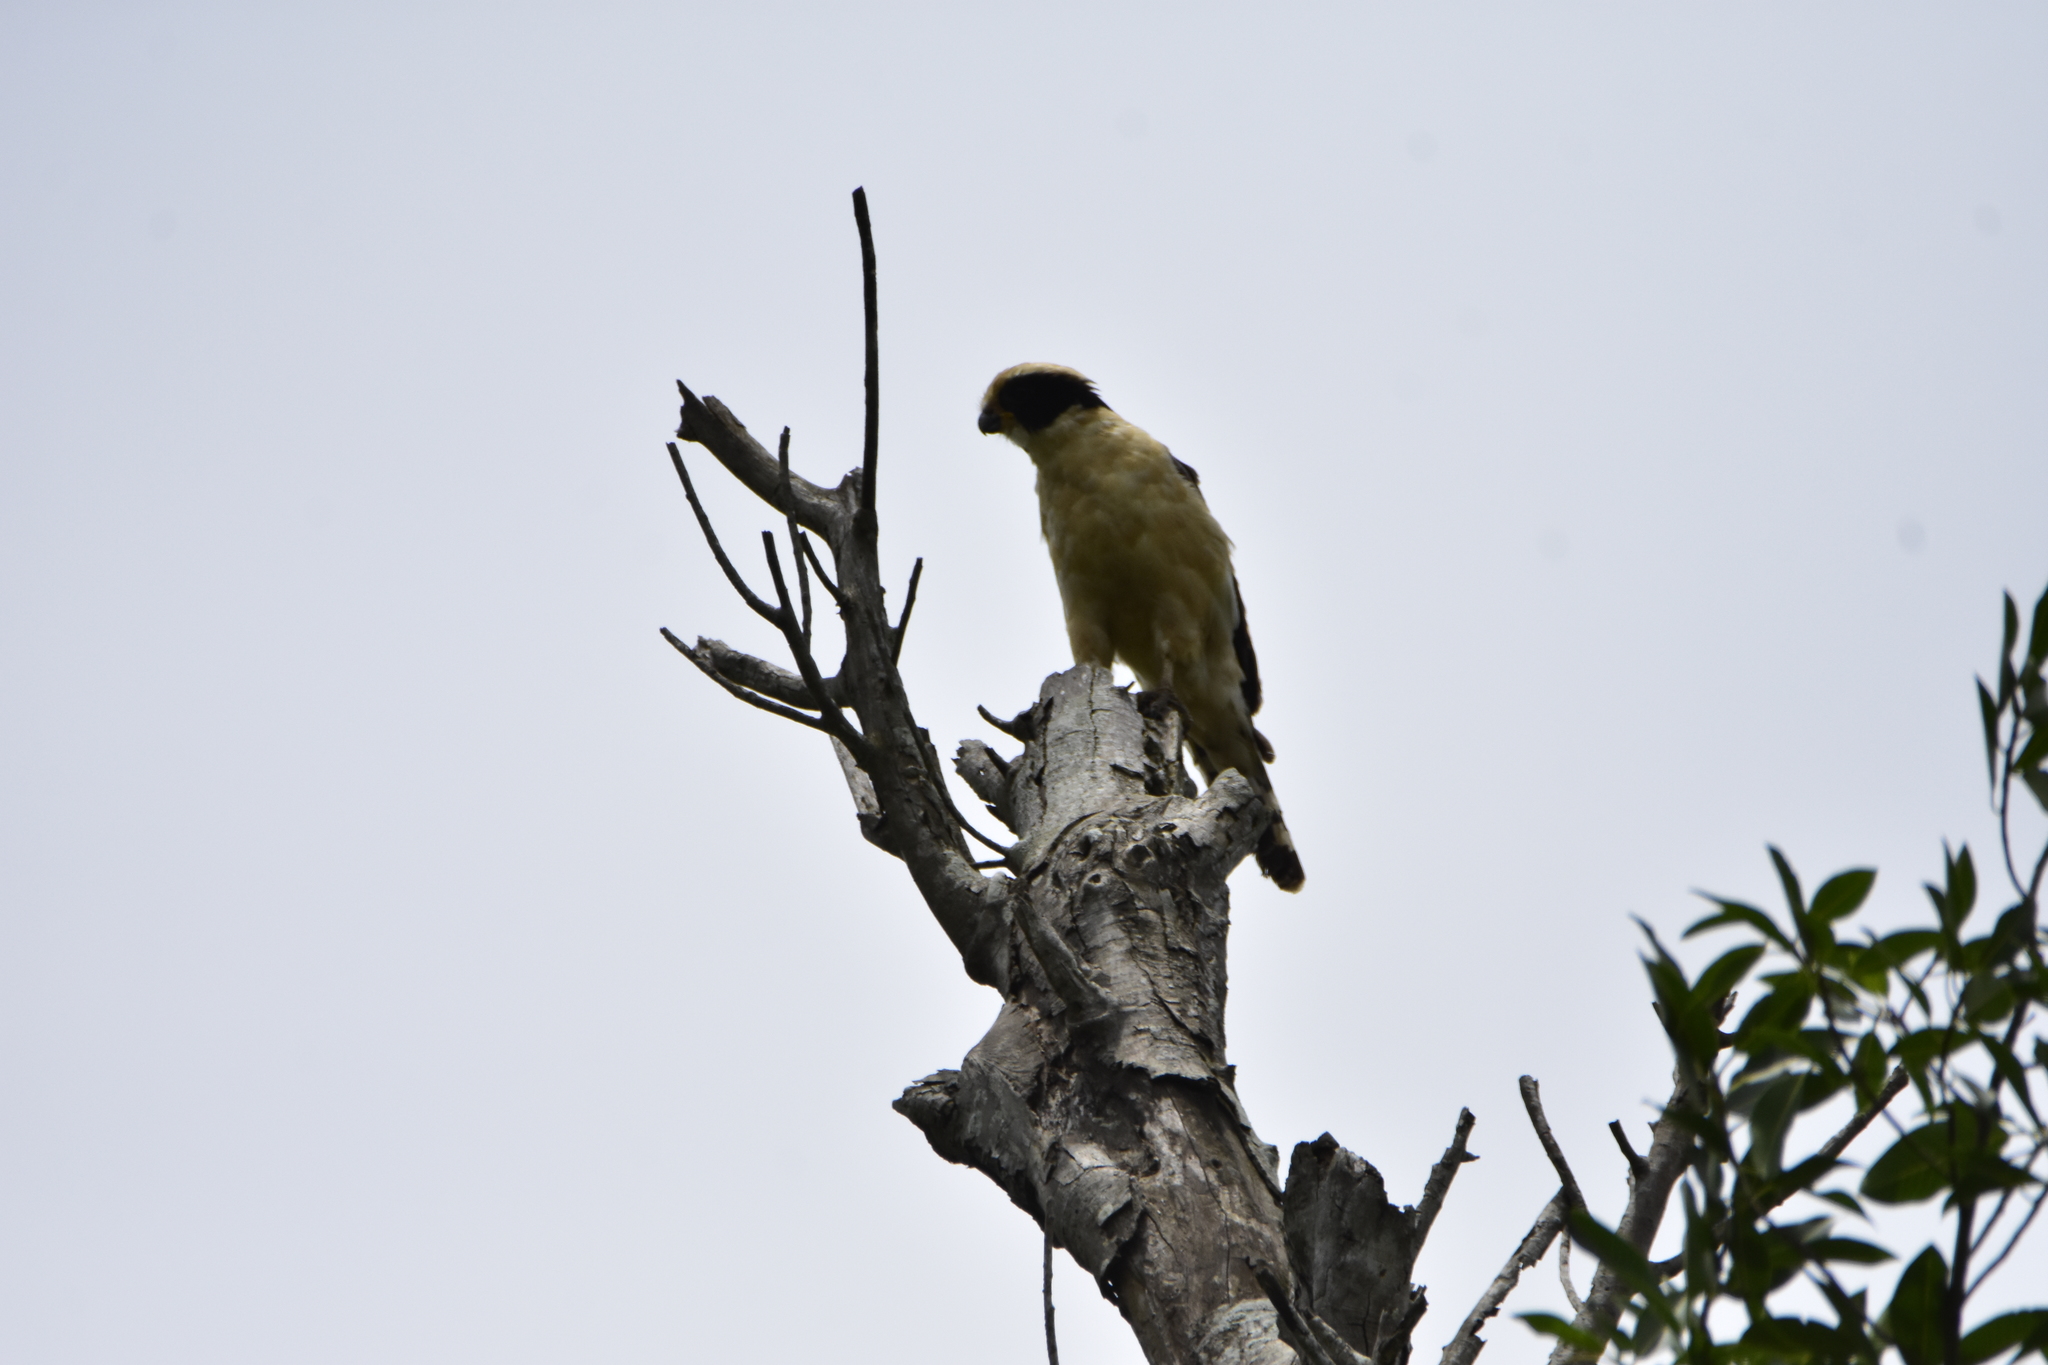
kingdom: Animalia
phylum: Chordata
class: Aves
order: Falconiformes
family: Falconidae
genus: Herpetotheres
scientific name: Herpetotheres cachinnans
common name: Laughing falcon
